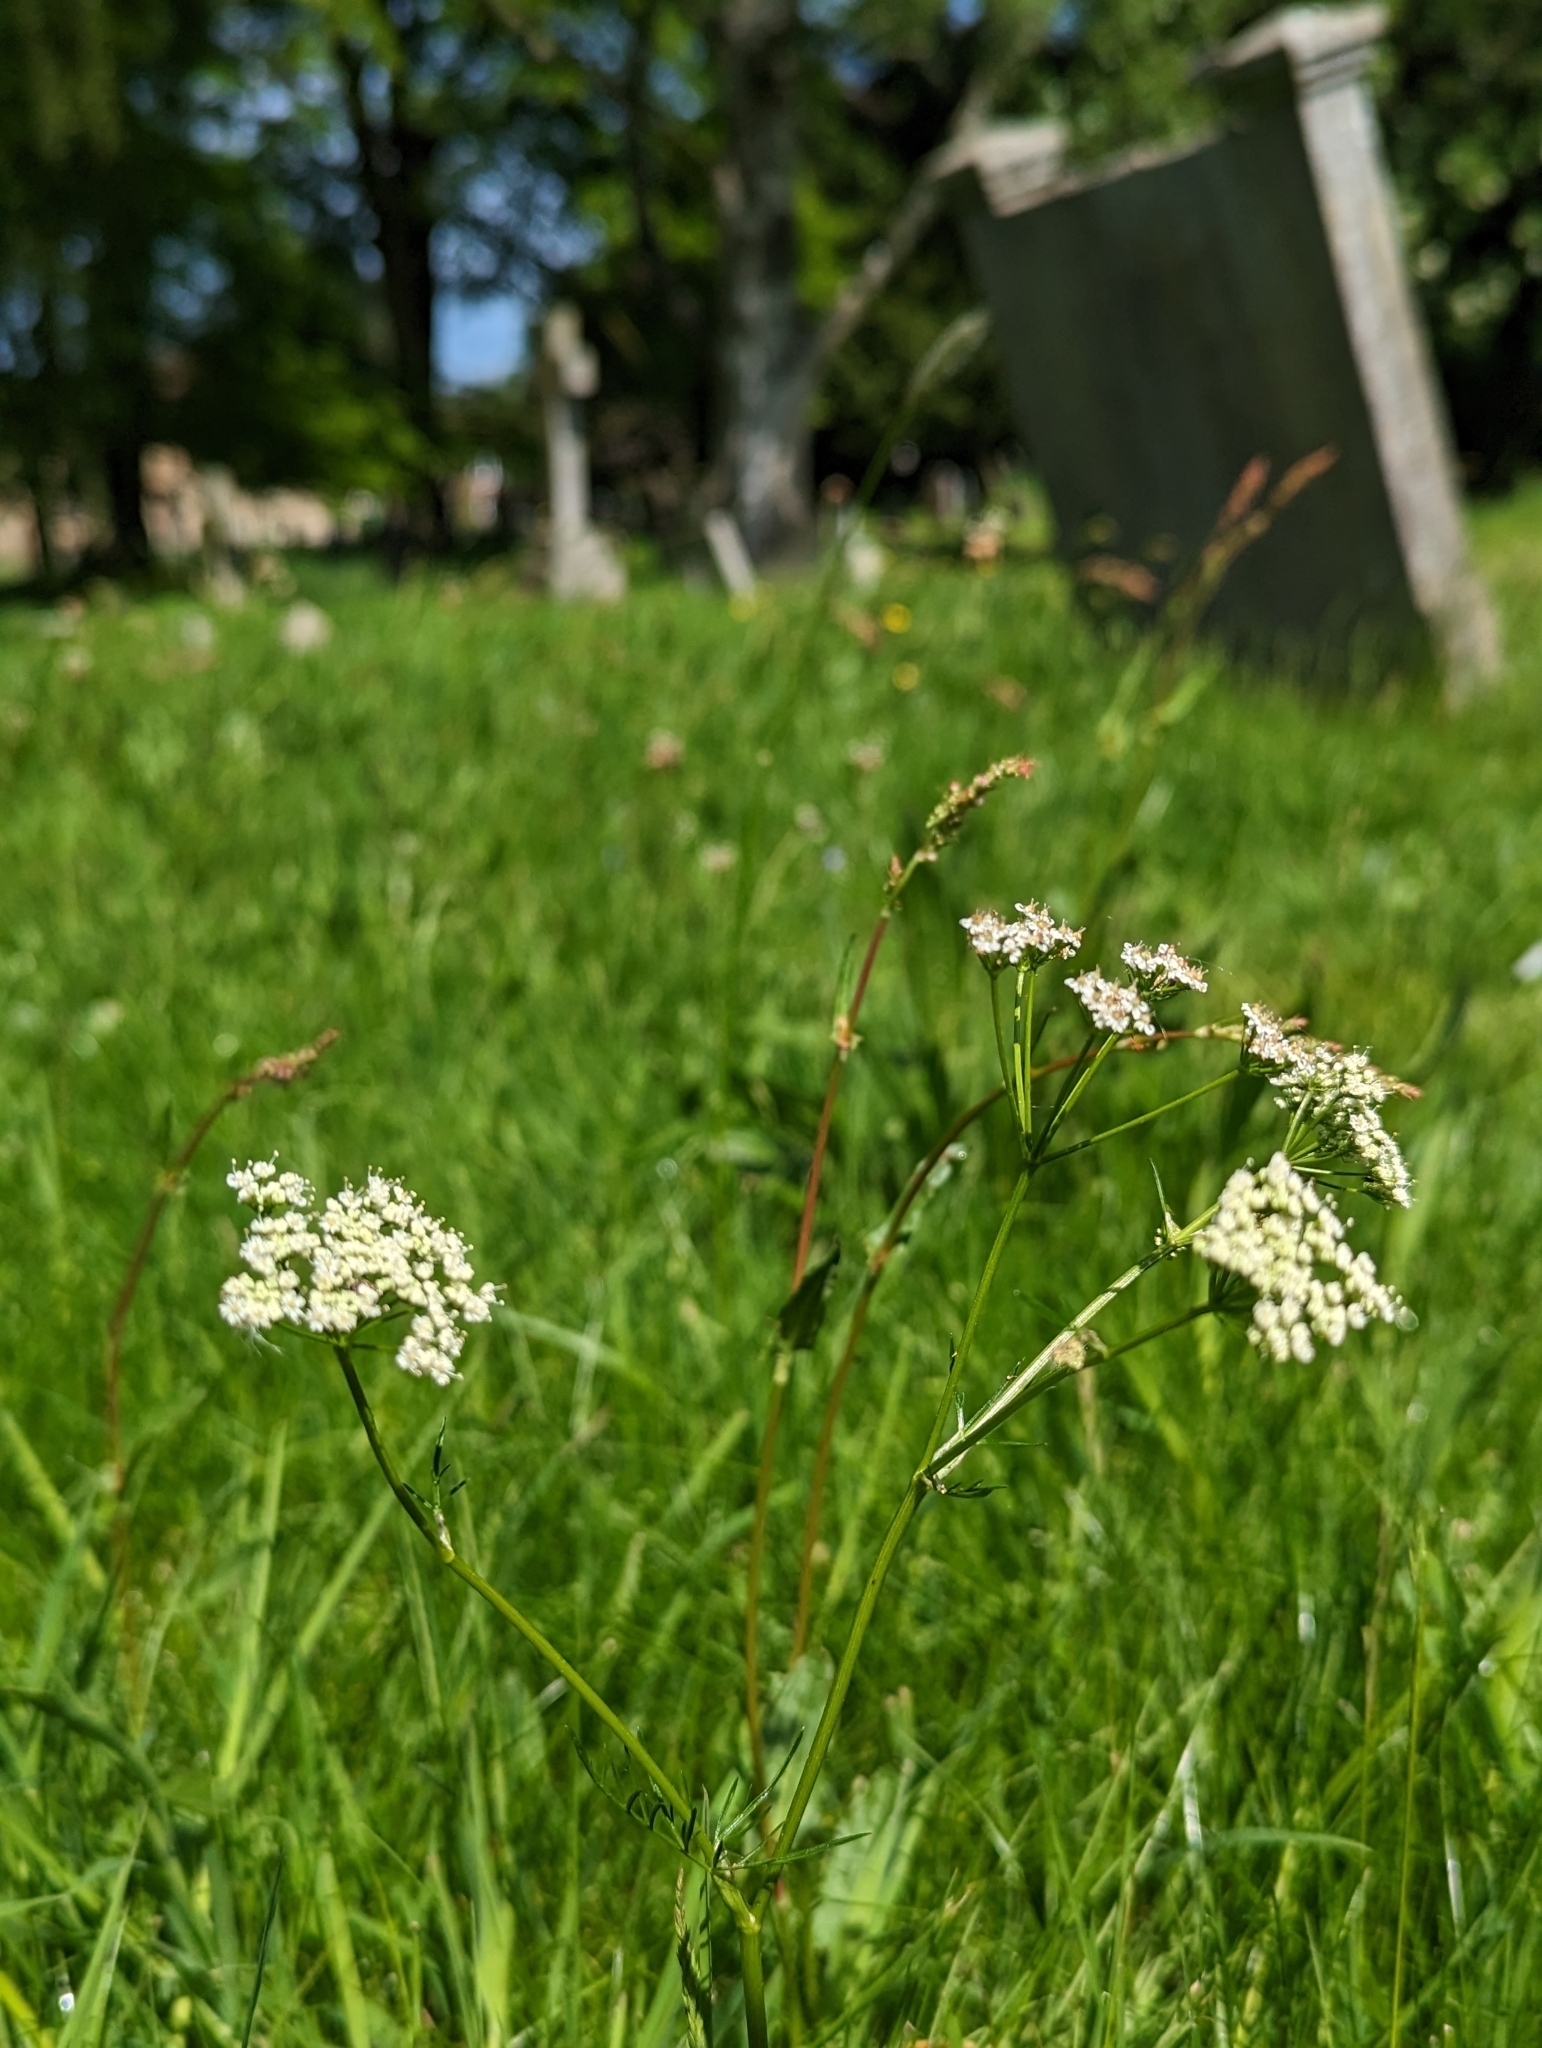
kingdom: Plantae
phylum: Tracheophyta
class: Magnoliopsida
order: Apiales
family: Apiaceae
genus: Anthriscus
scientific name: Anthriscus sylvestris
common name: Cow parsley
